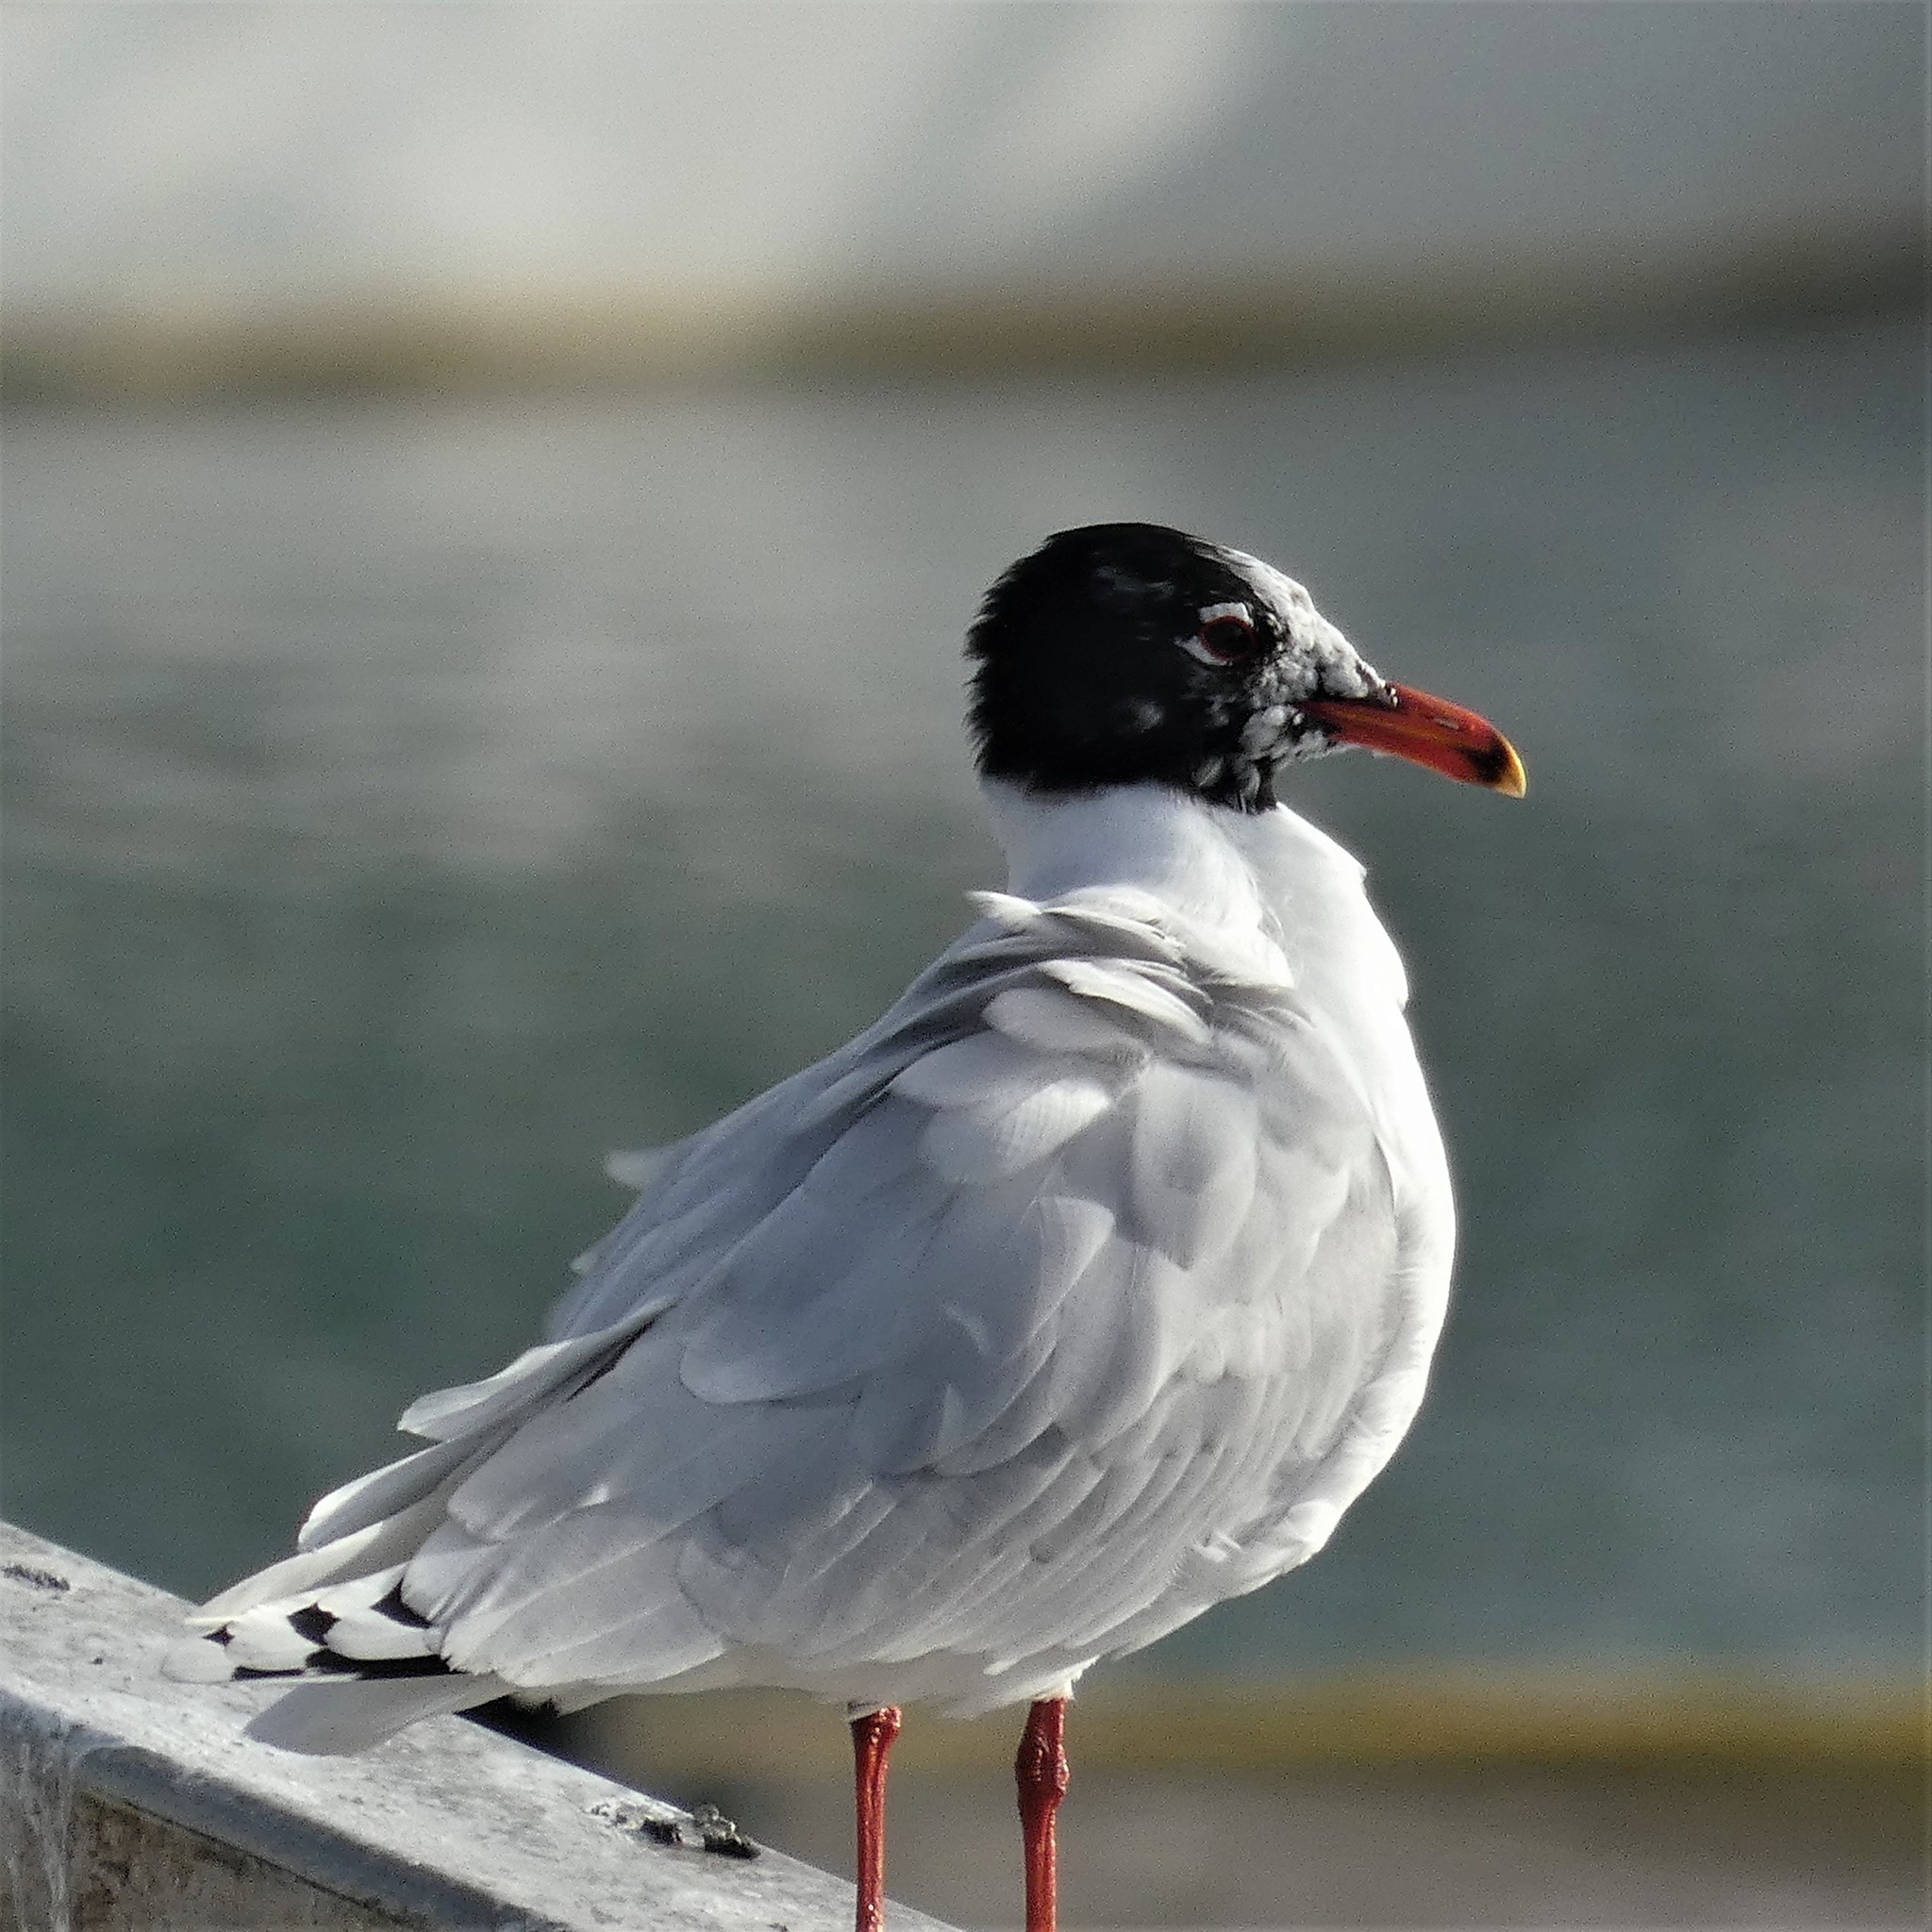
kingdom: Animalia
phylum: Chordata
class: Aves
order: Charadriiformes
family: Laridae
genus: Ichthyaetus
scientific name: Ichthyaetus melanocephalus
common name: Mediterranean gull
